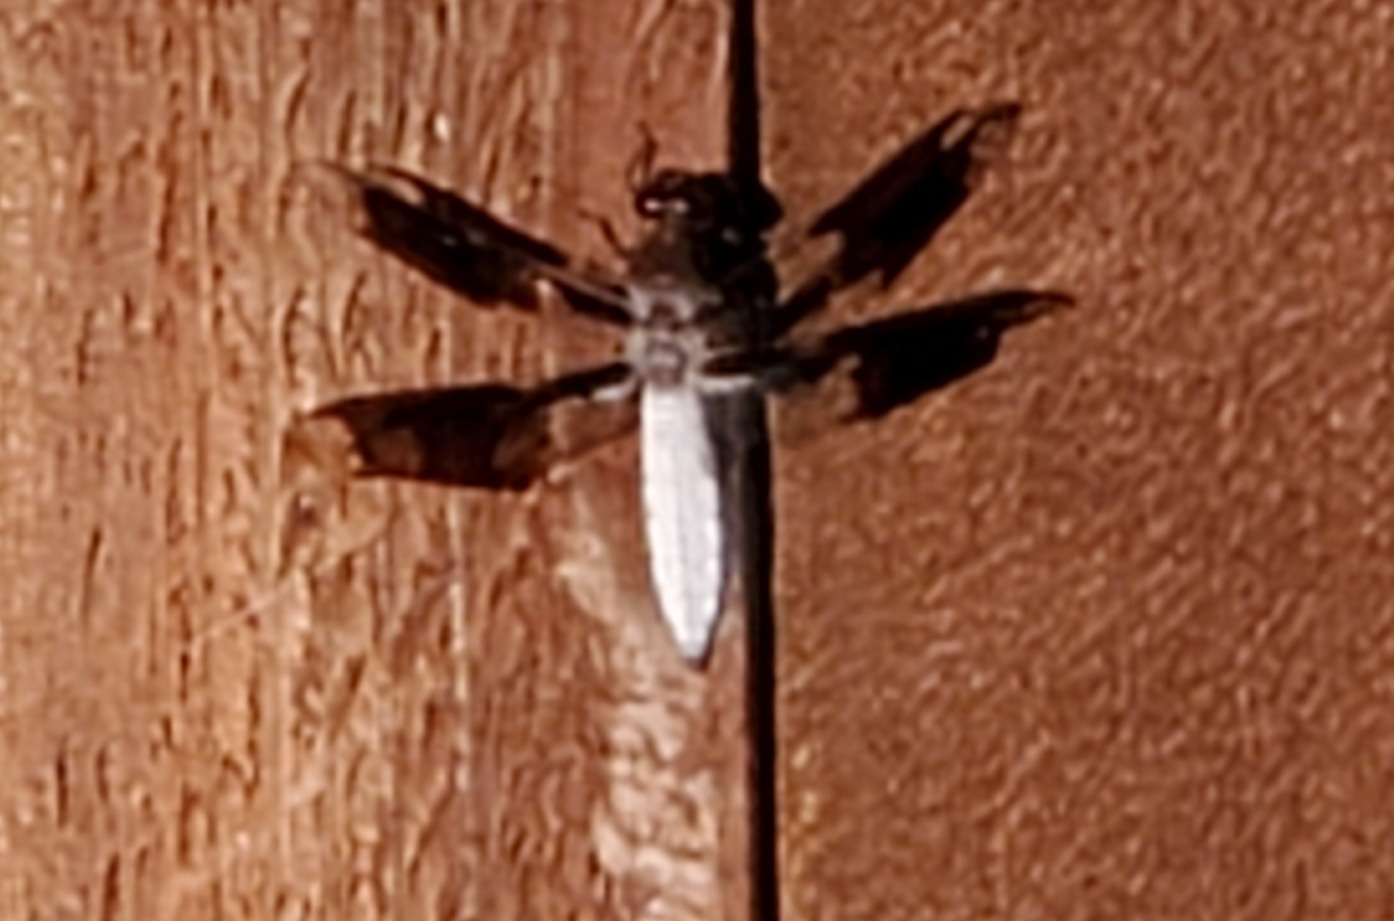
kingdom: Animalia
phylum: Arthropoda
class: Insecta
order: Odonata
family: Libellulidae
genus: Plathemis
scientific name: Plathemis lydia
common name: Common whitetail
